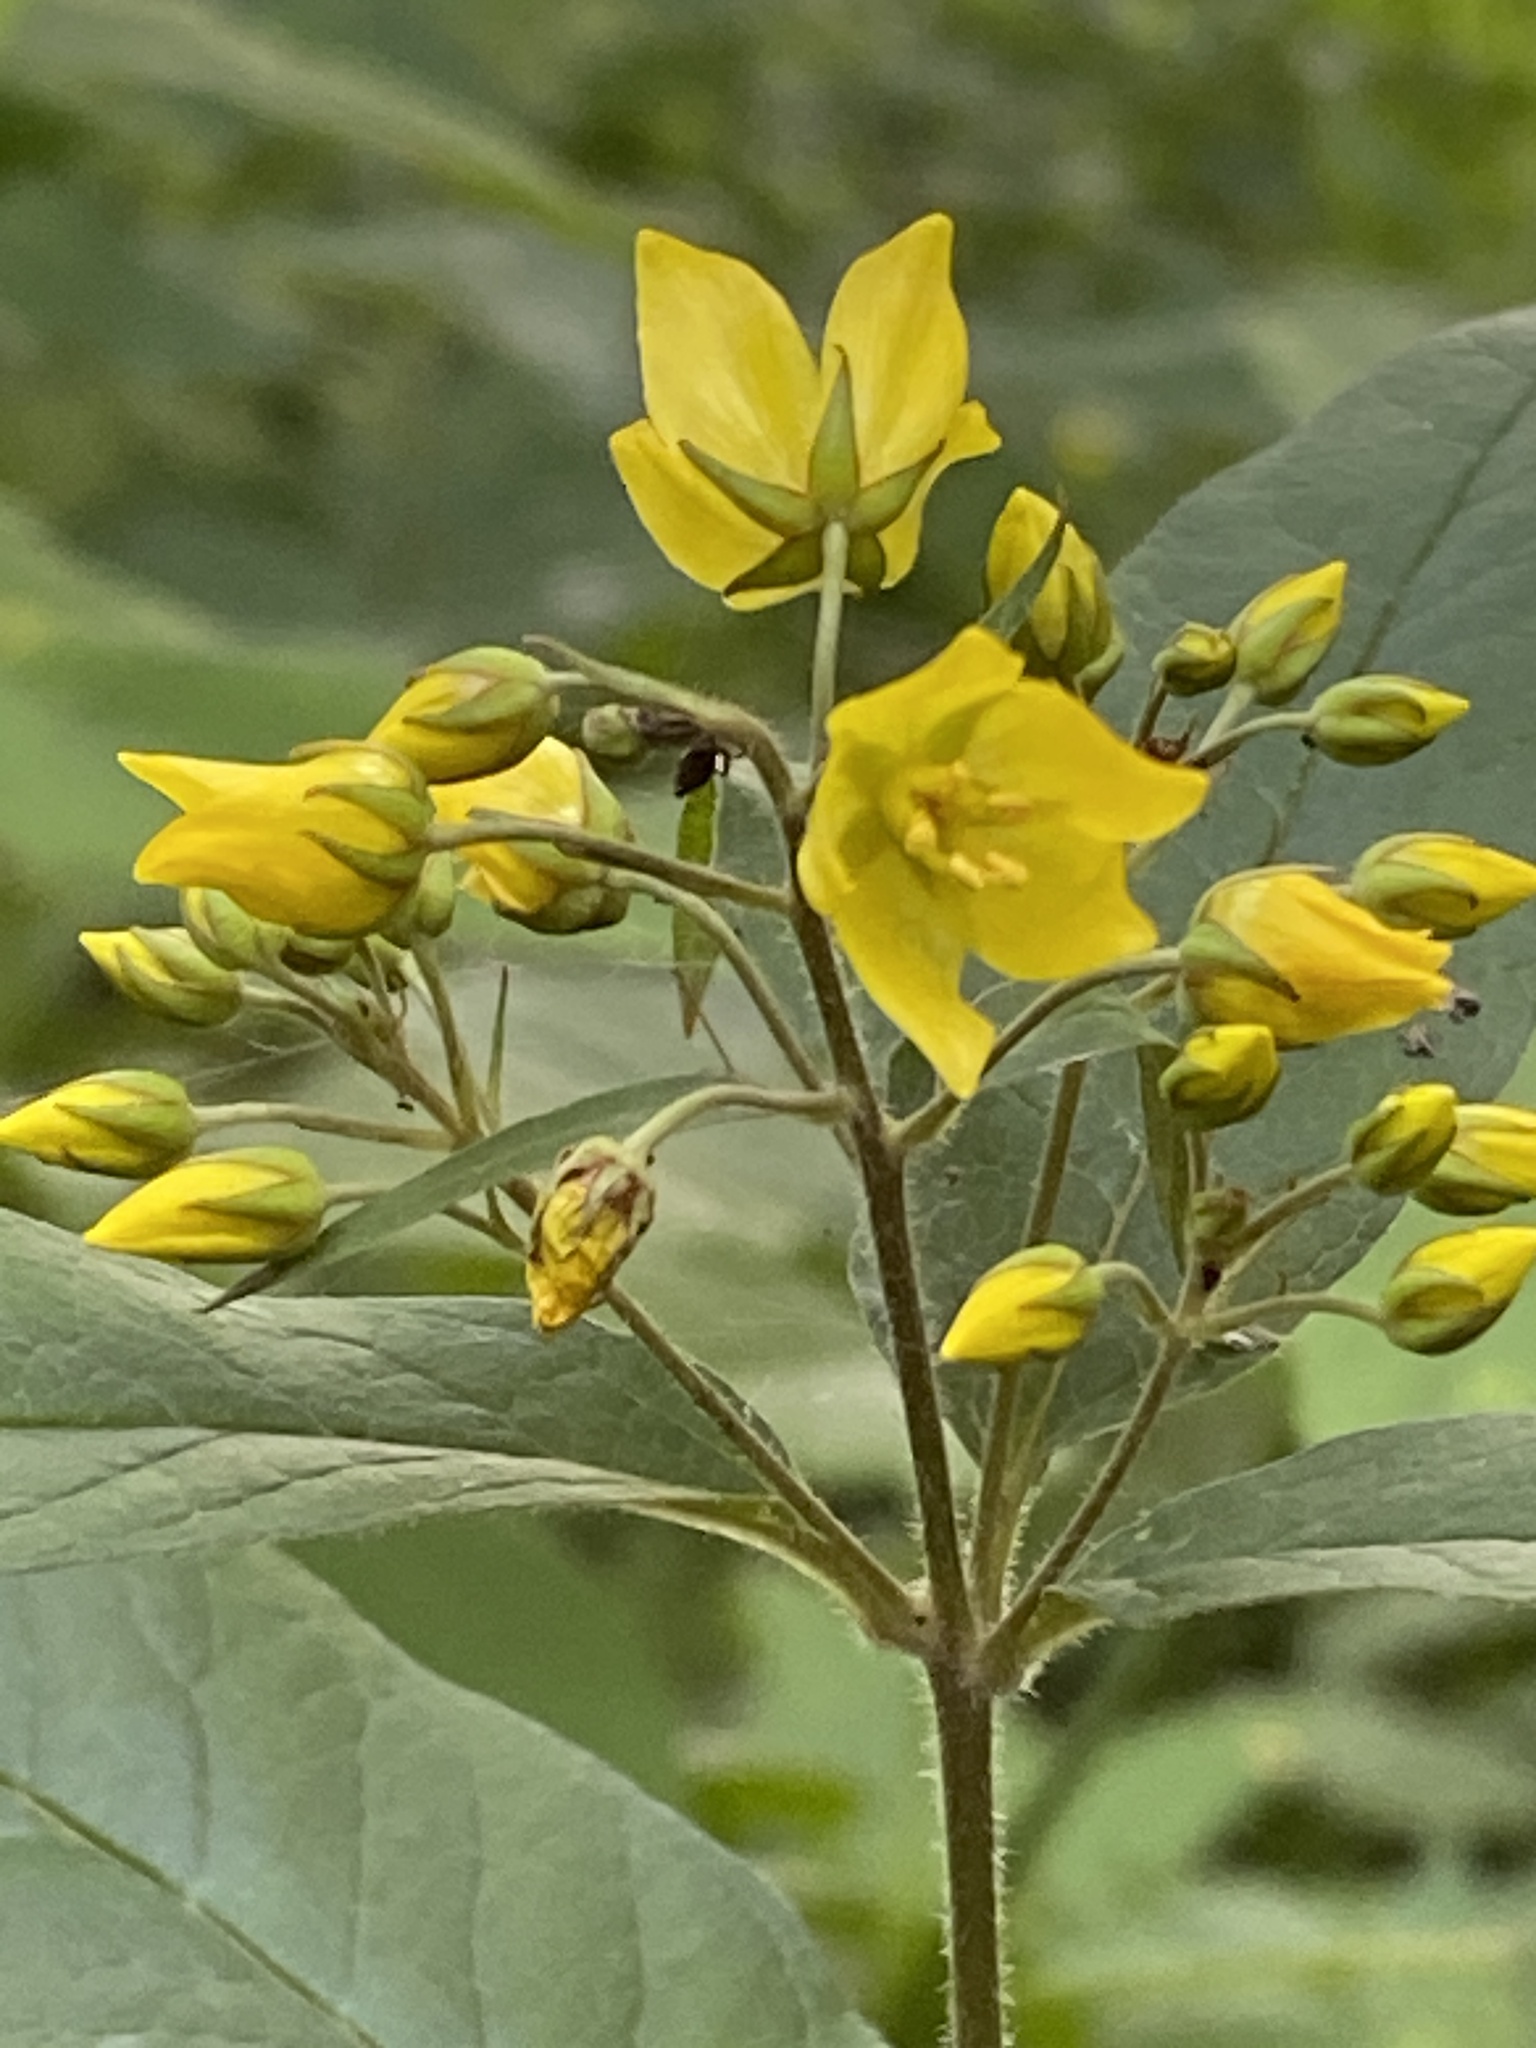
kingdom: Plantae
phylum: Tracheophyta
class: Magnoliopsida
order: Ericales
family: Primulaceae
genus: Lysimachia
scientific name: Lysimachia vulgaris
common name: Yellow loosestrife
